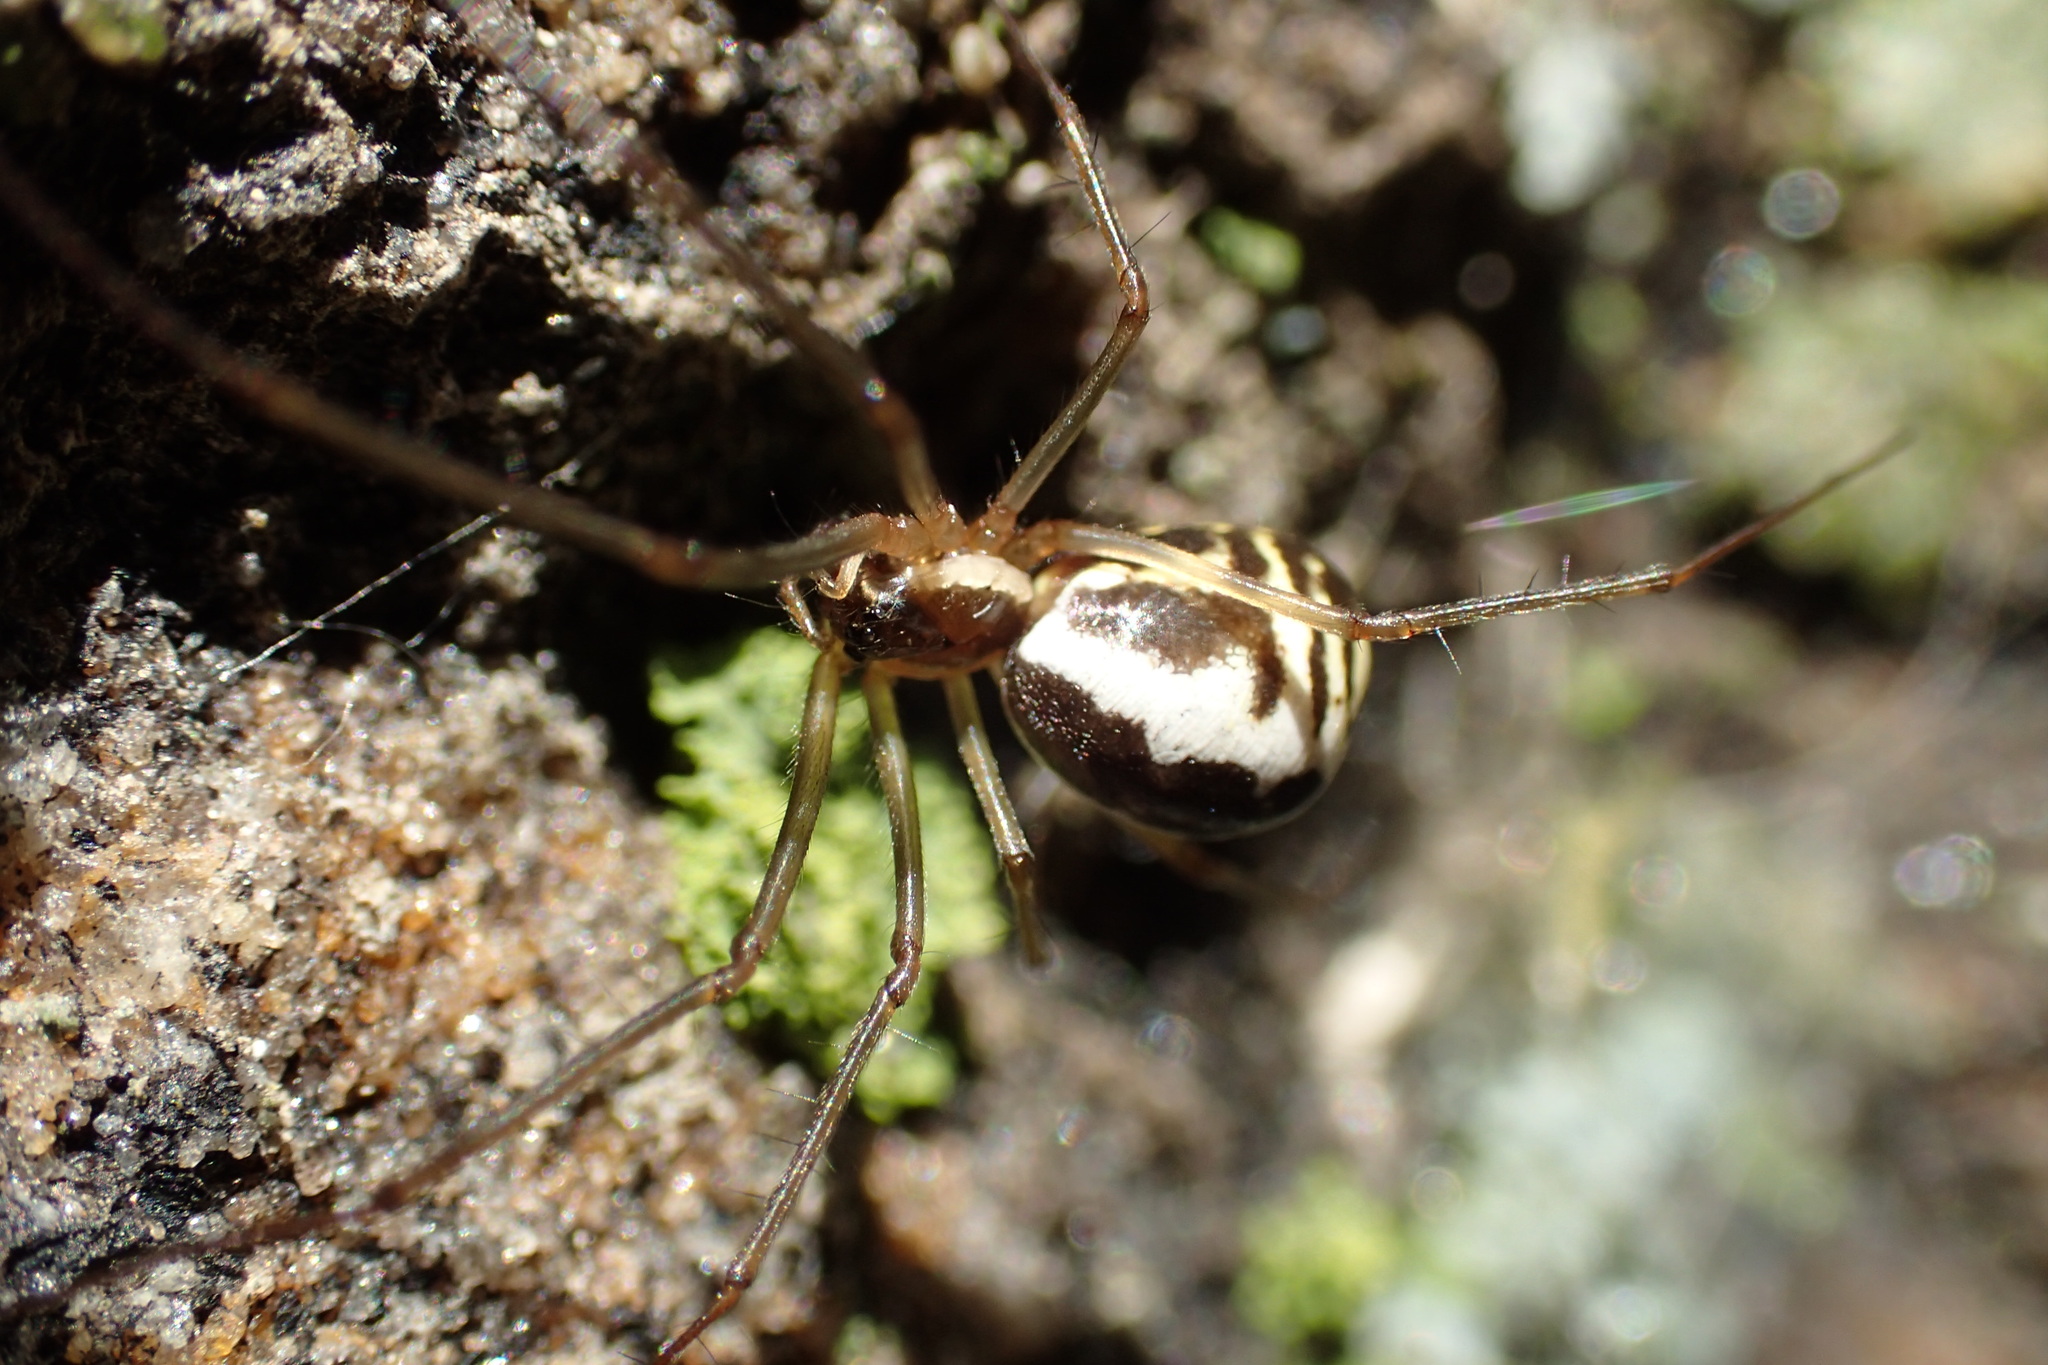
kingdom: Animalia
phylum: Arthropoda
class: Arachnida
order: Araneae
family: Linyphiidae
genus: Neriene
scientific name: Neriene radiata
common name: Filmy dome spider
